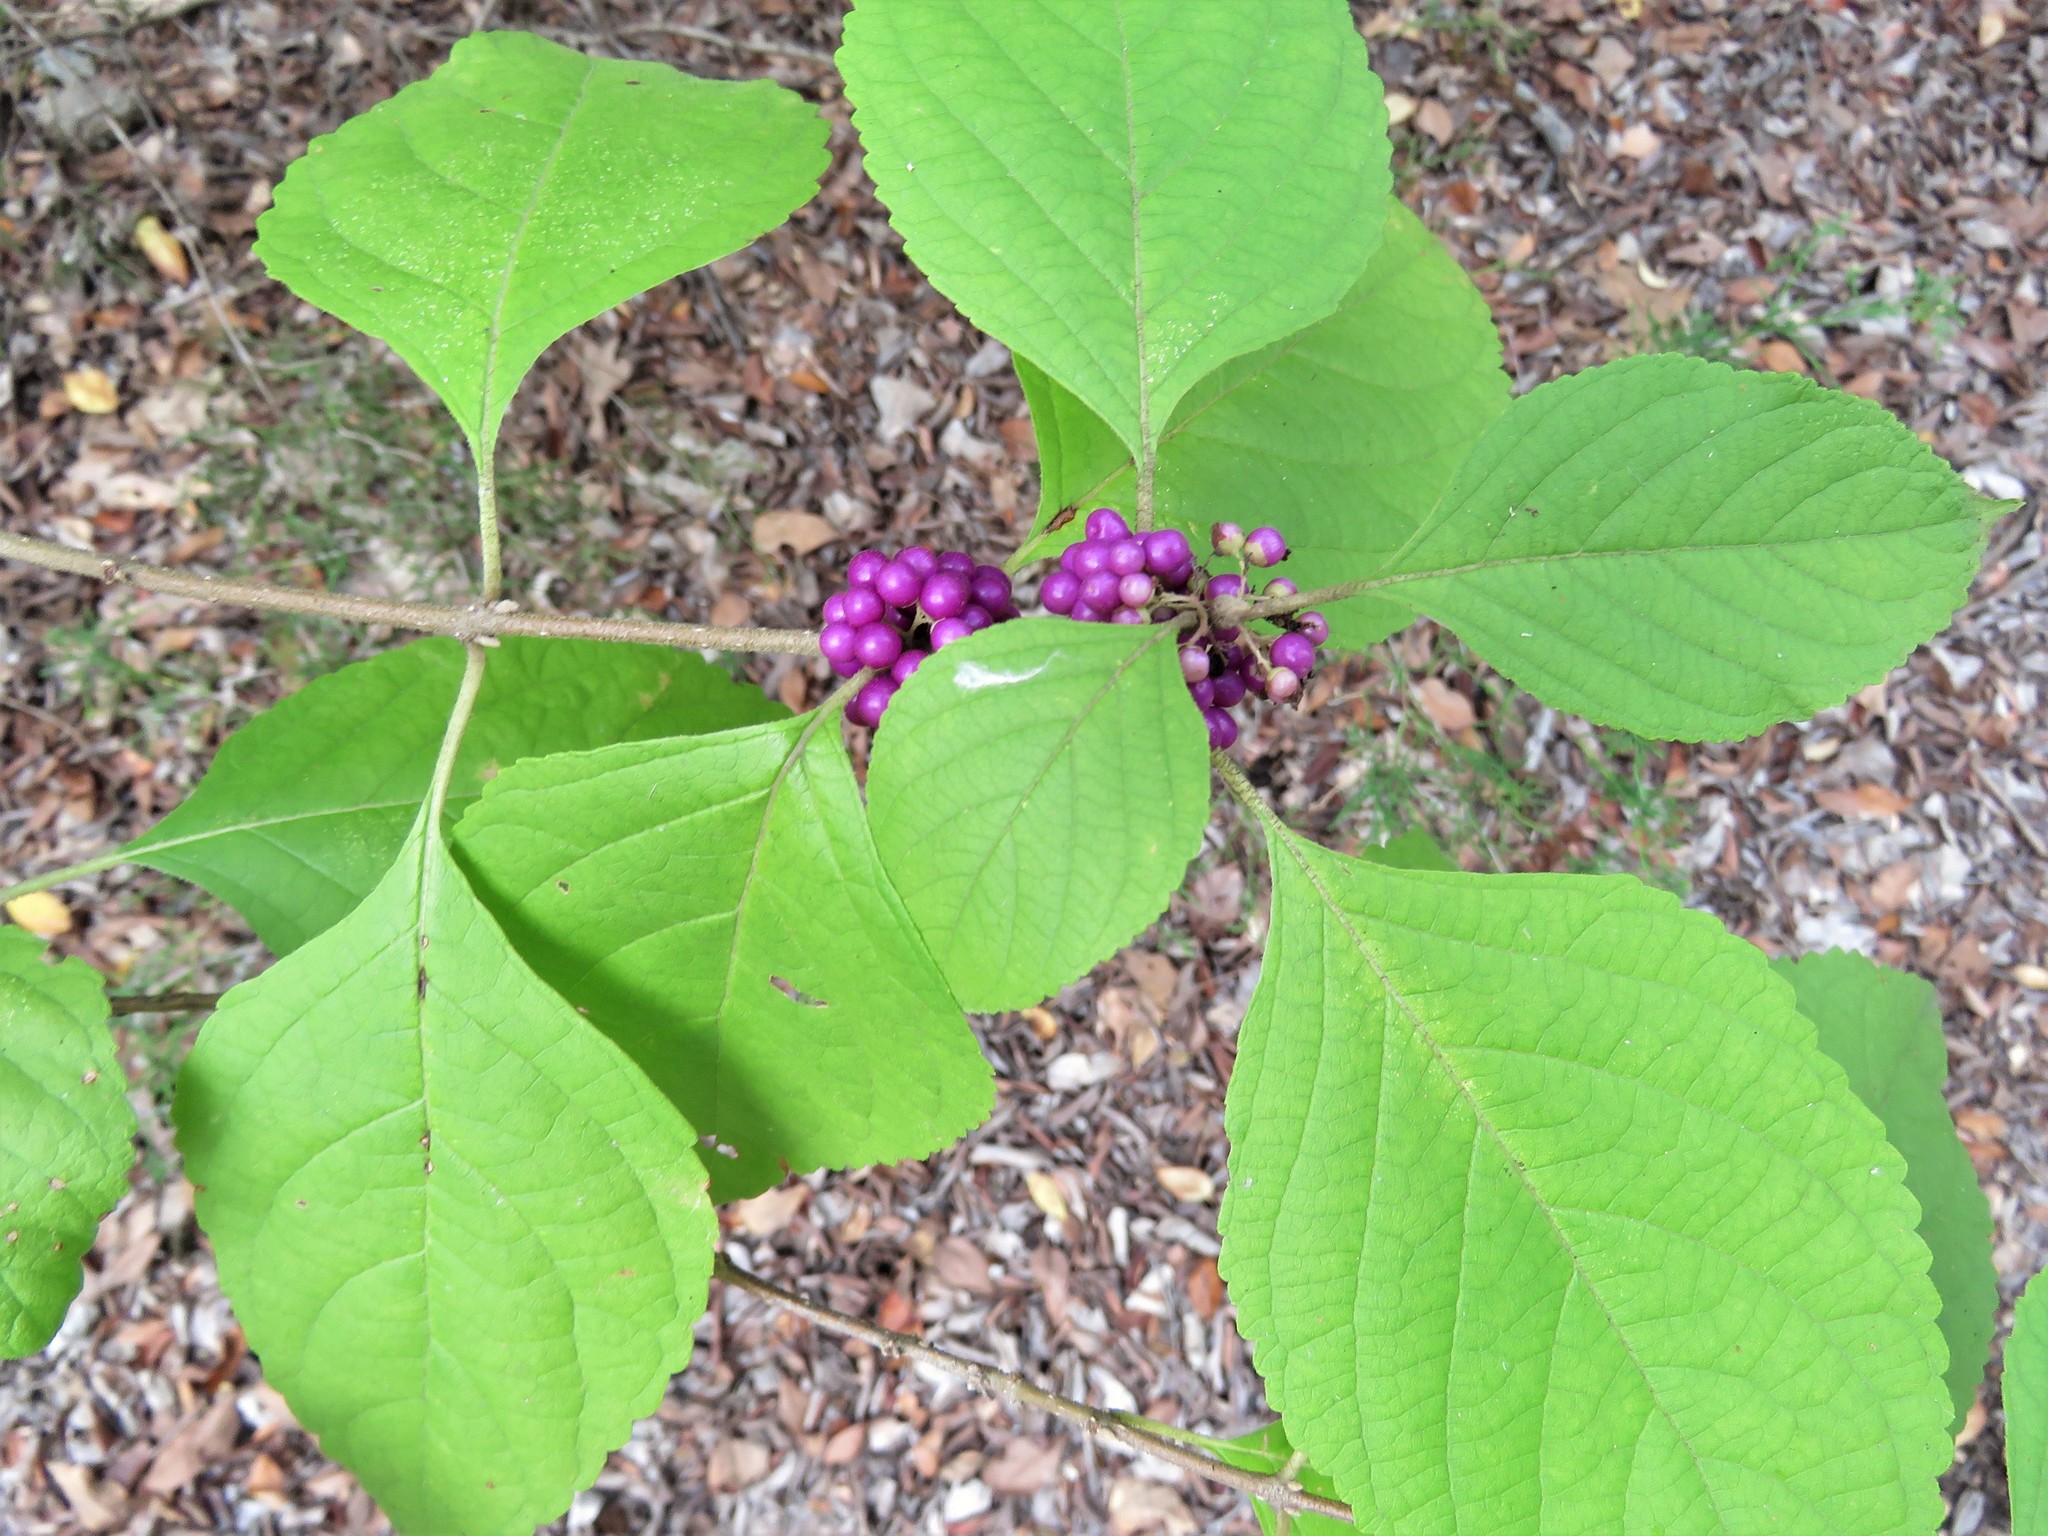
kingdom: Plantae
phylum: Tracheophyta
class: Magnoliopsida
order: Lamiales
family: Lamiaceae
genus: Callicarpa
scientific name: Callicarpa americana
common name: American beautyberry
